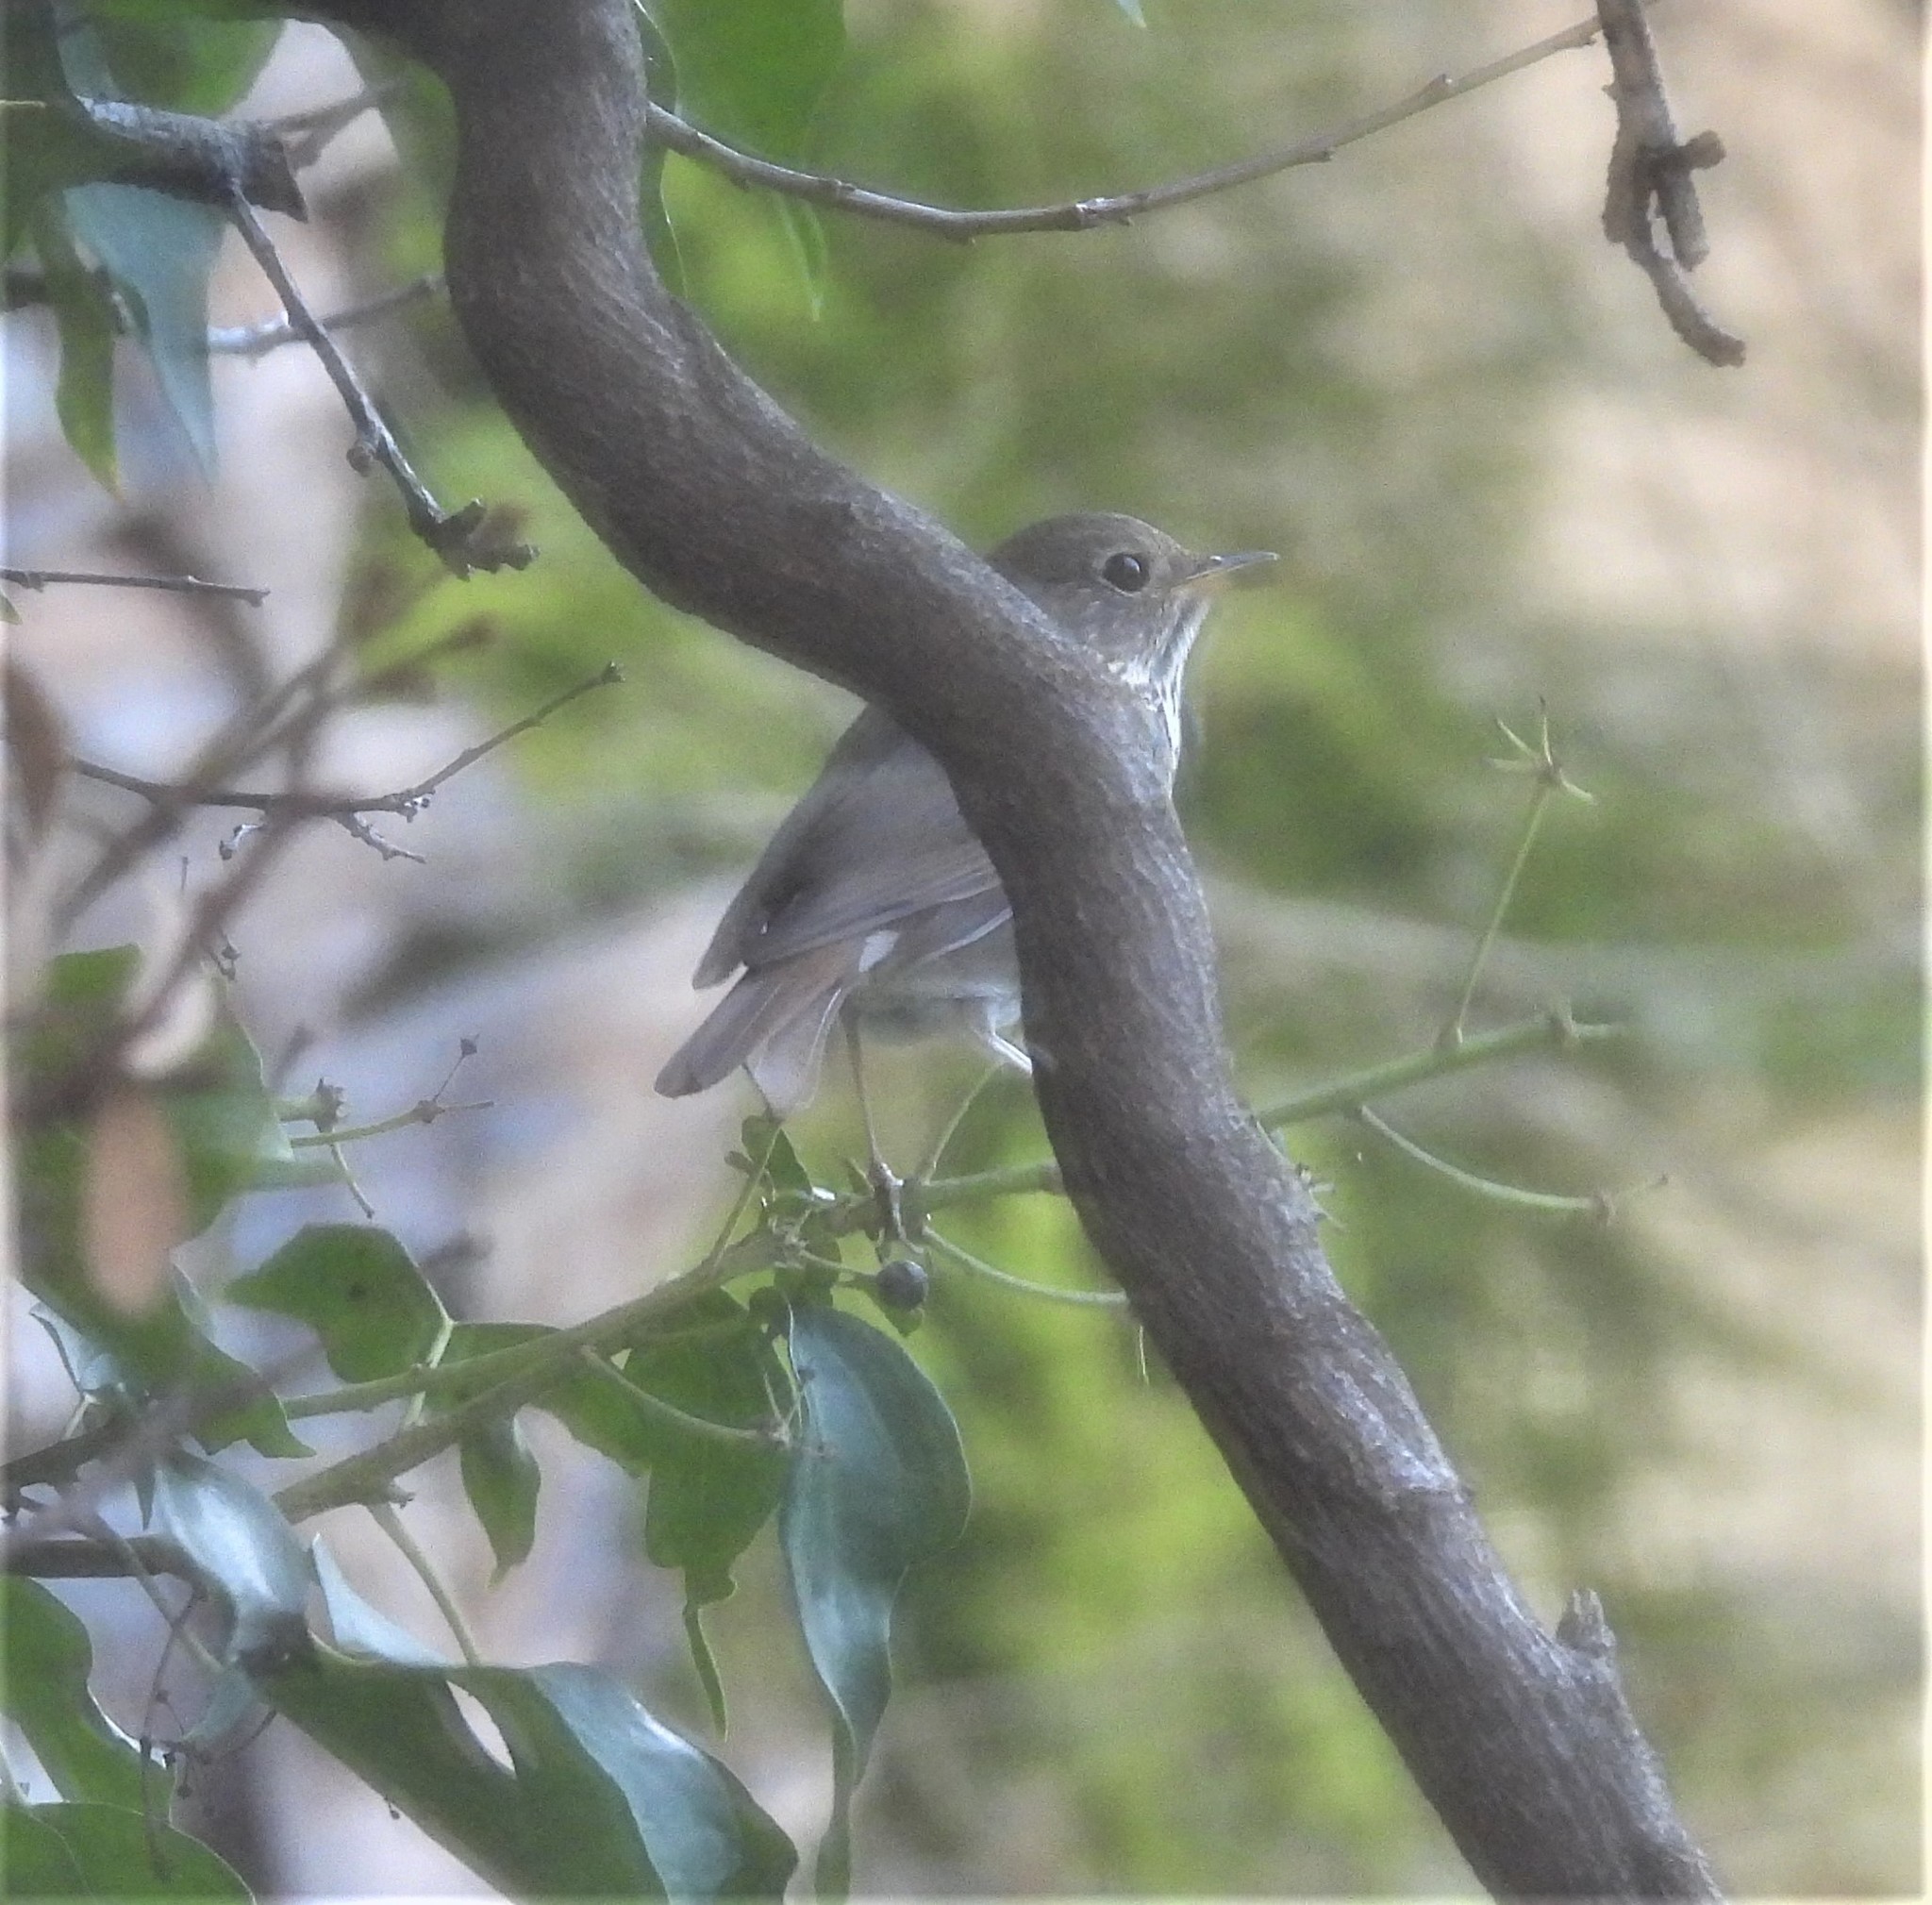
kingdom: Animalia
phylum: Chordata
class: Aves
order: Passeriformes
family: Turdidae
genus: Catharus
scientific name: Catharus guttatus
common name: Hermit thrush
